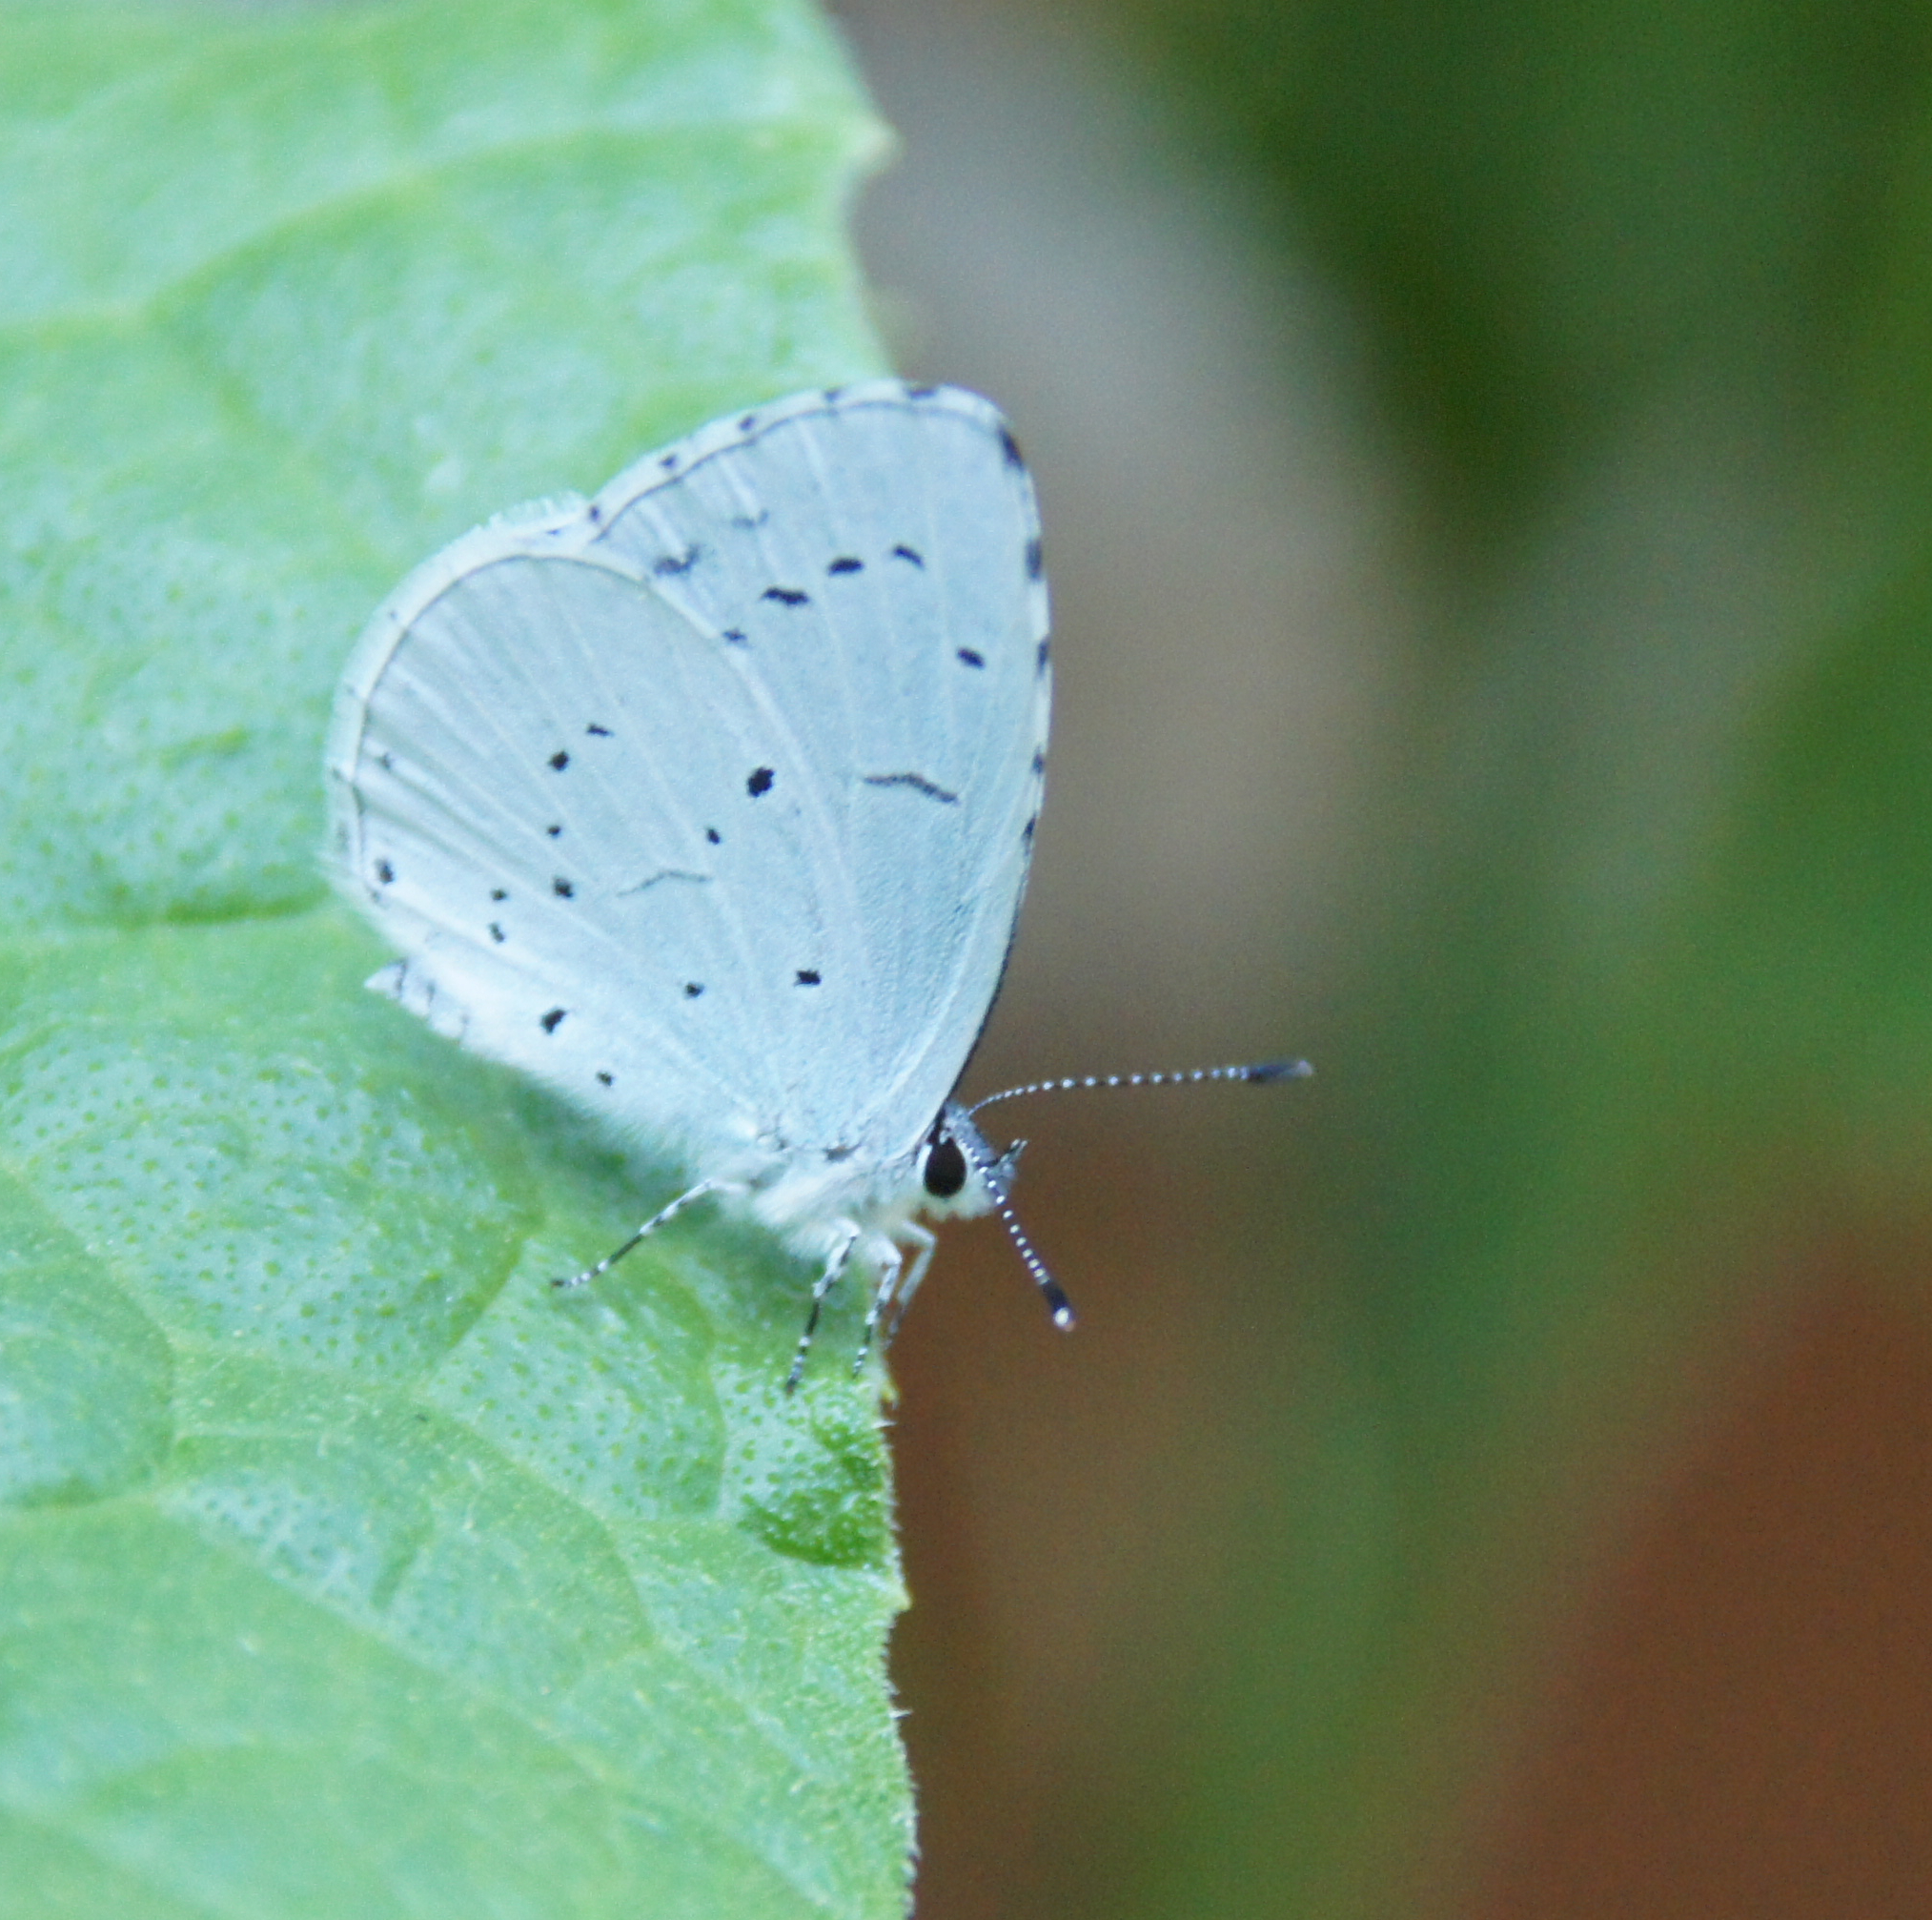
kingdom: Animalia
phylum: Arthropoda
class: Insecta
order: Lepidoptera
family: Lycaenidae
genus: Celastrina
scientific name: Celastrina argiolus
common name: Holly blue
